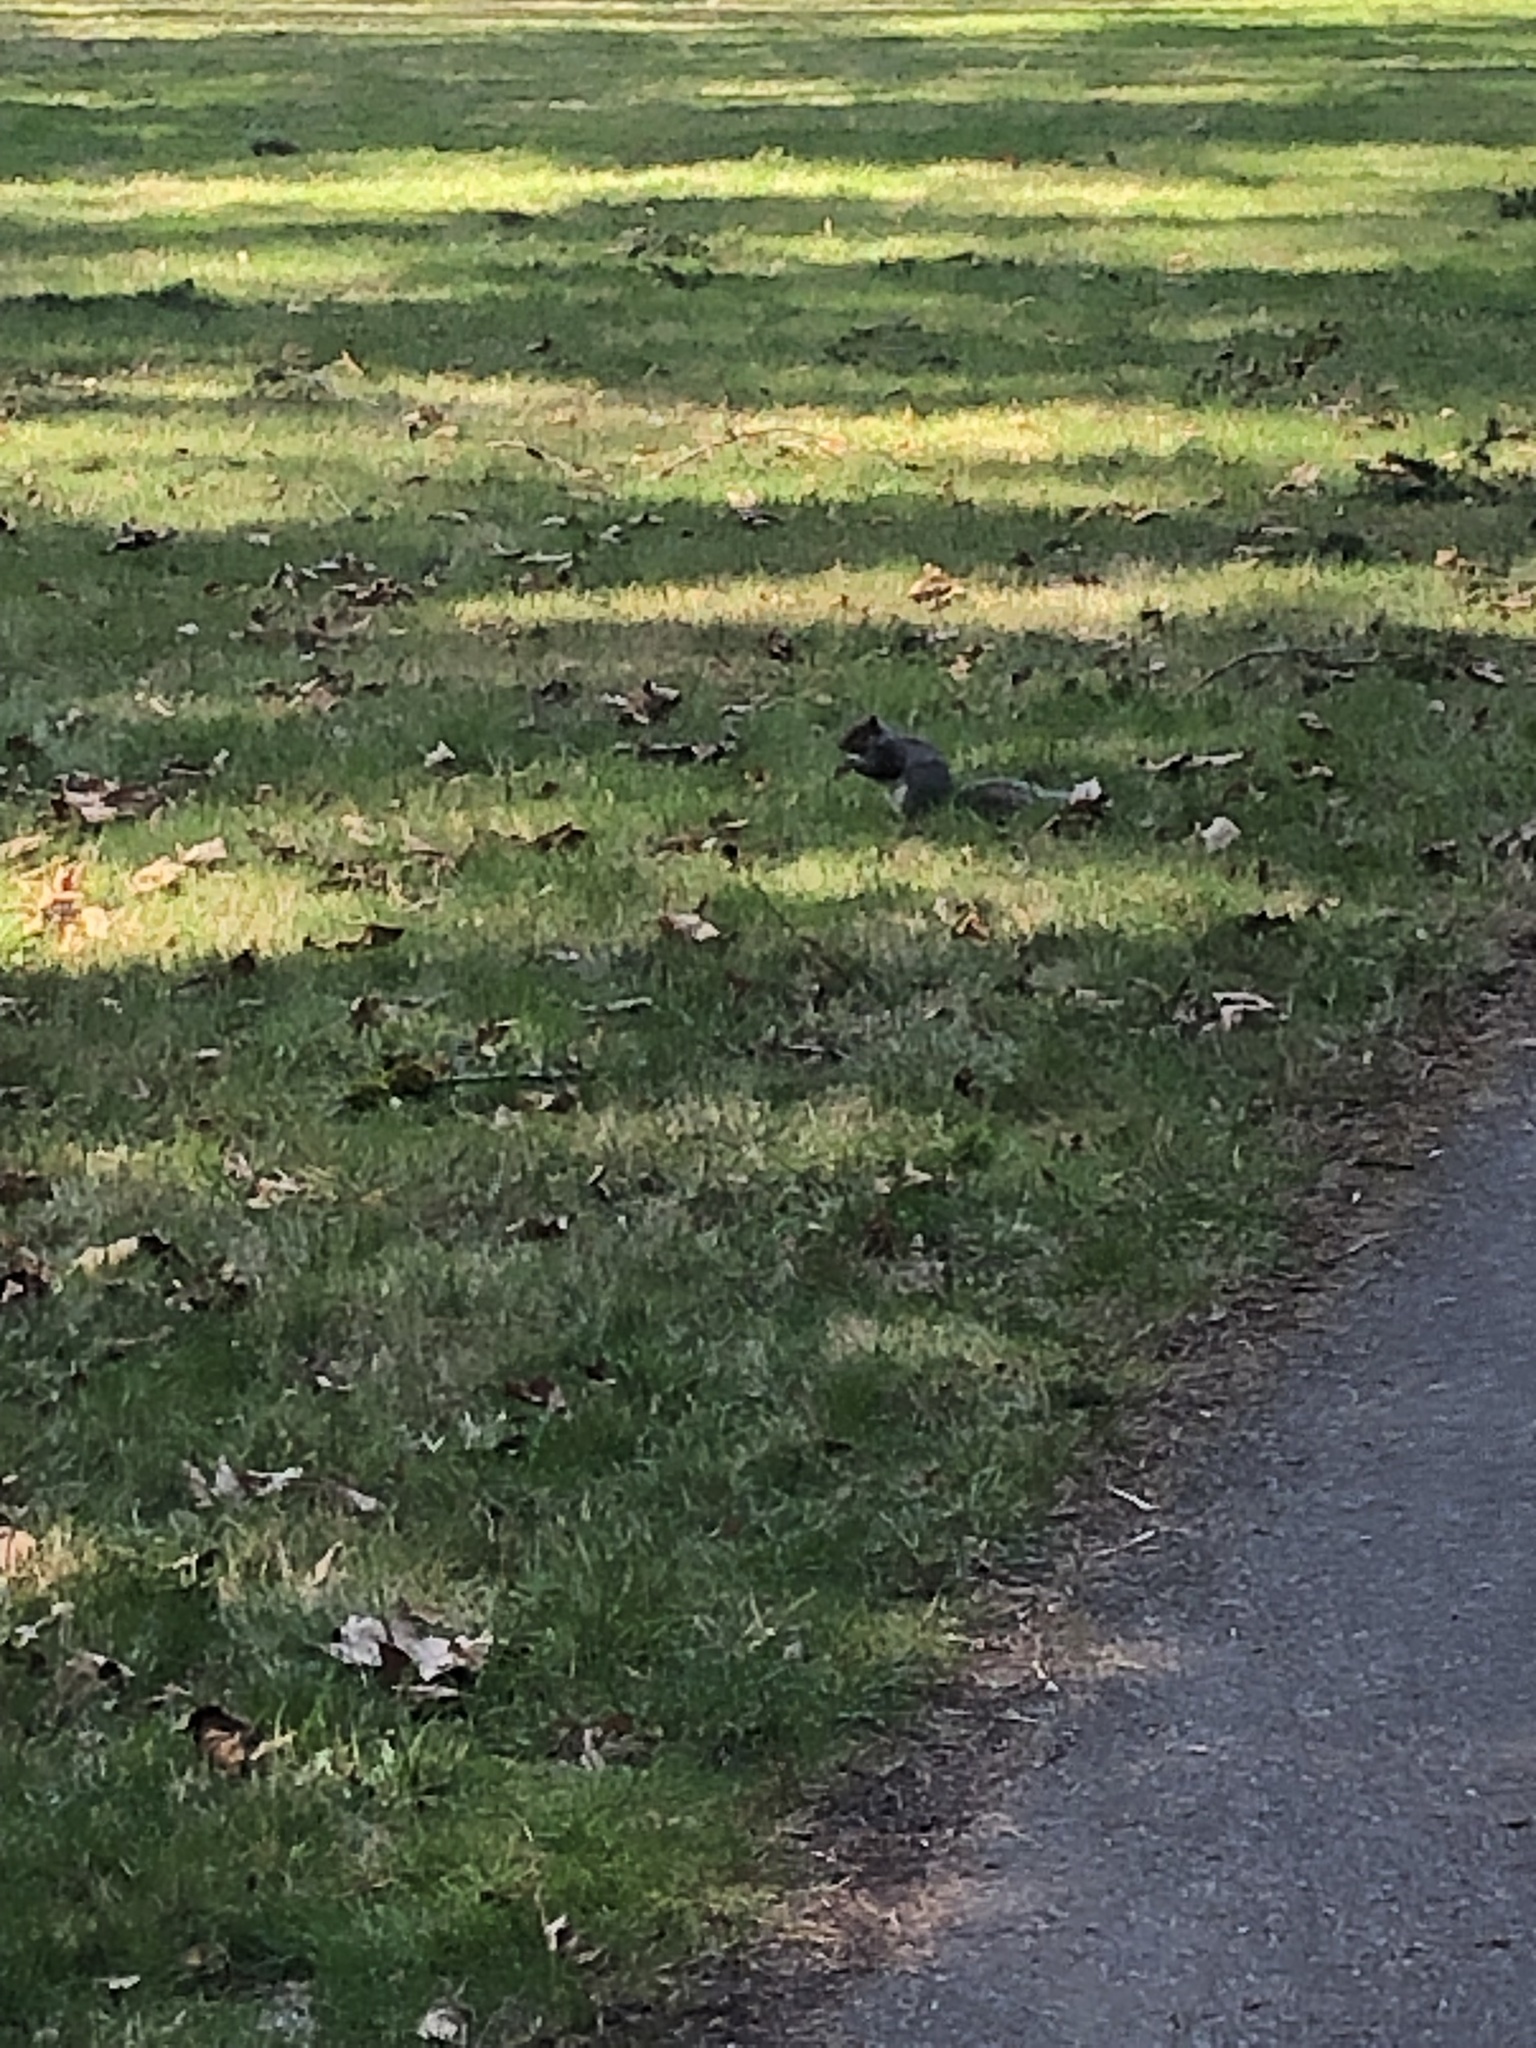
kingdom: Animalia
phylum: Chordata
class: Mammalia
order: Rodentia
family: Sciuridae
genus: Sciurus
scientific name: Sciurus carolinensis
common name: Eastern gray squirrel
